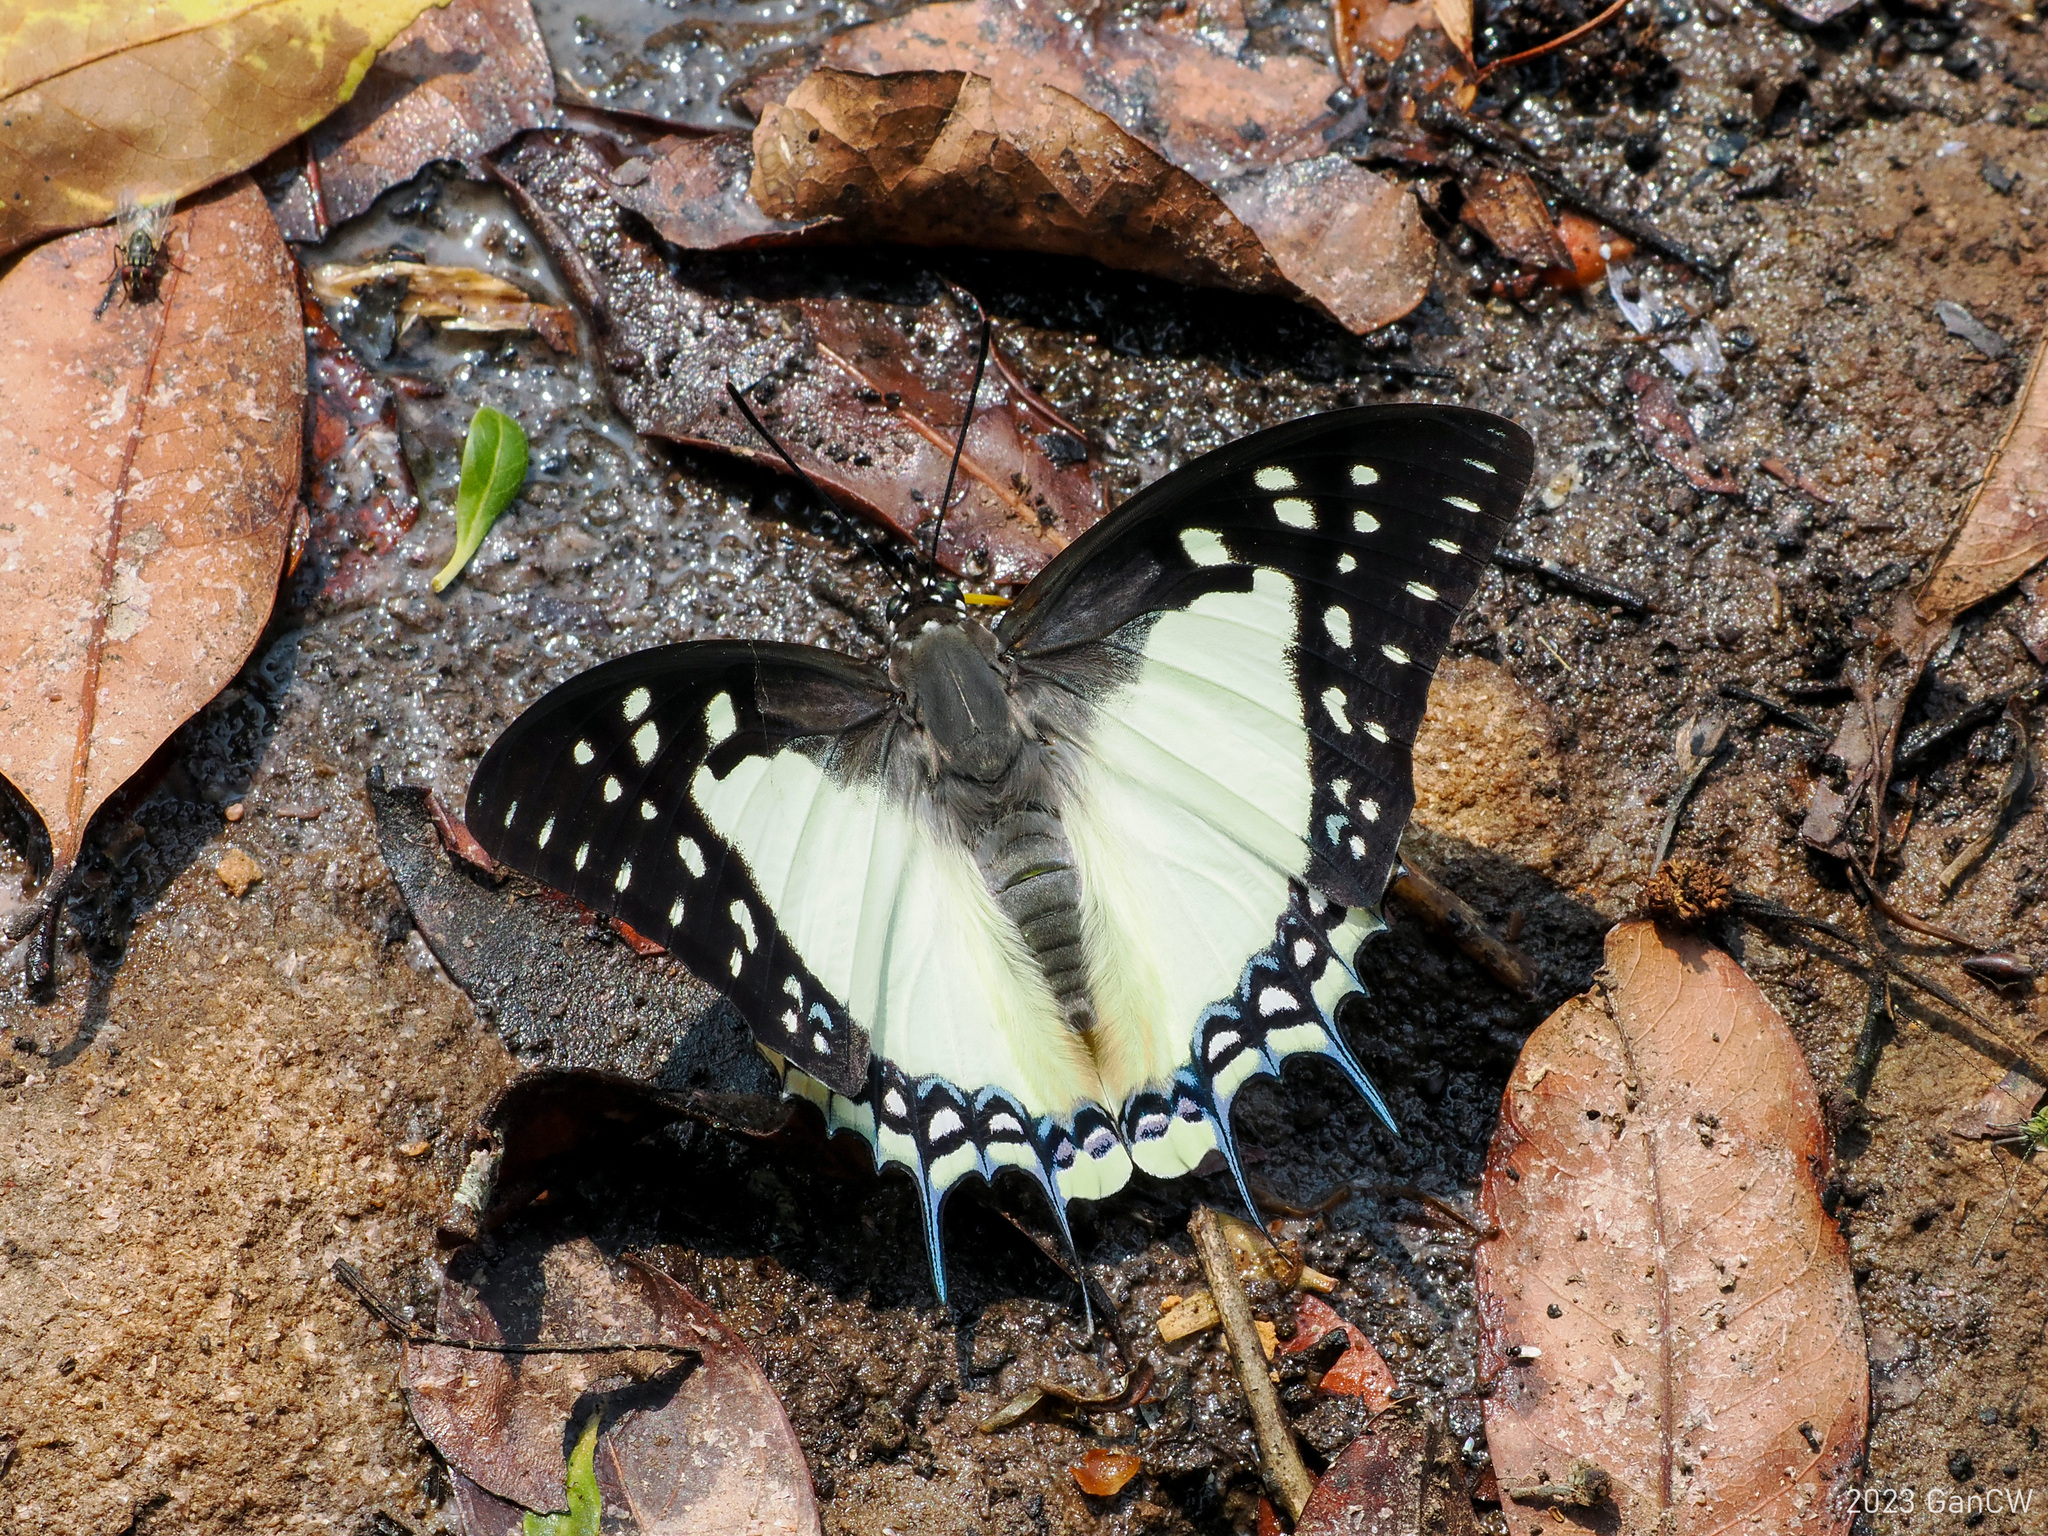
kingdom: Animalia
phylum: Arthropoda
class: Insecta
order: Lepidoptera
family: Nymphalidae
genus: Polyura
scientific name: Polyura eudamippus
